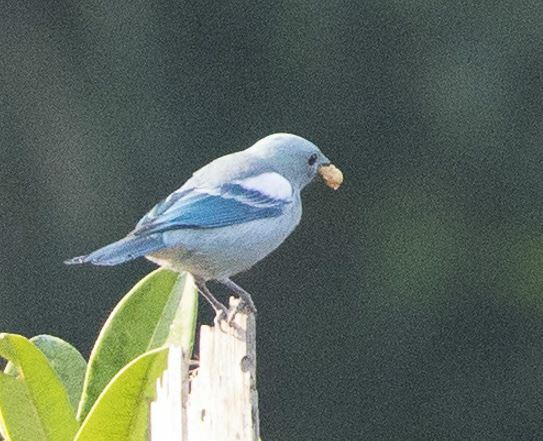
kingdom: Animalia
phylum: Chordata
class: Aves
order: Passeriformes
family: Thraupidae
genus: Thraupis
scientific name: Thraupis episcopus
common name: Blue-grey tanager
